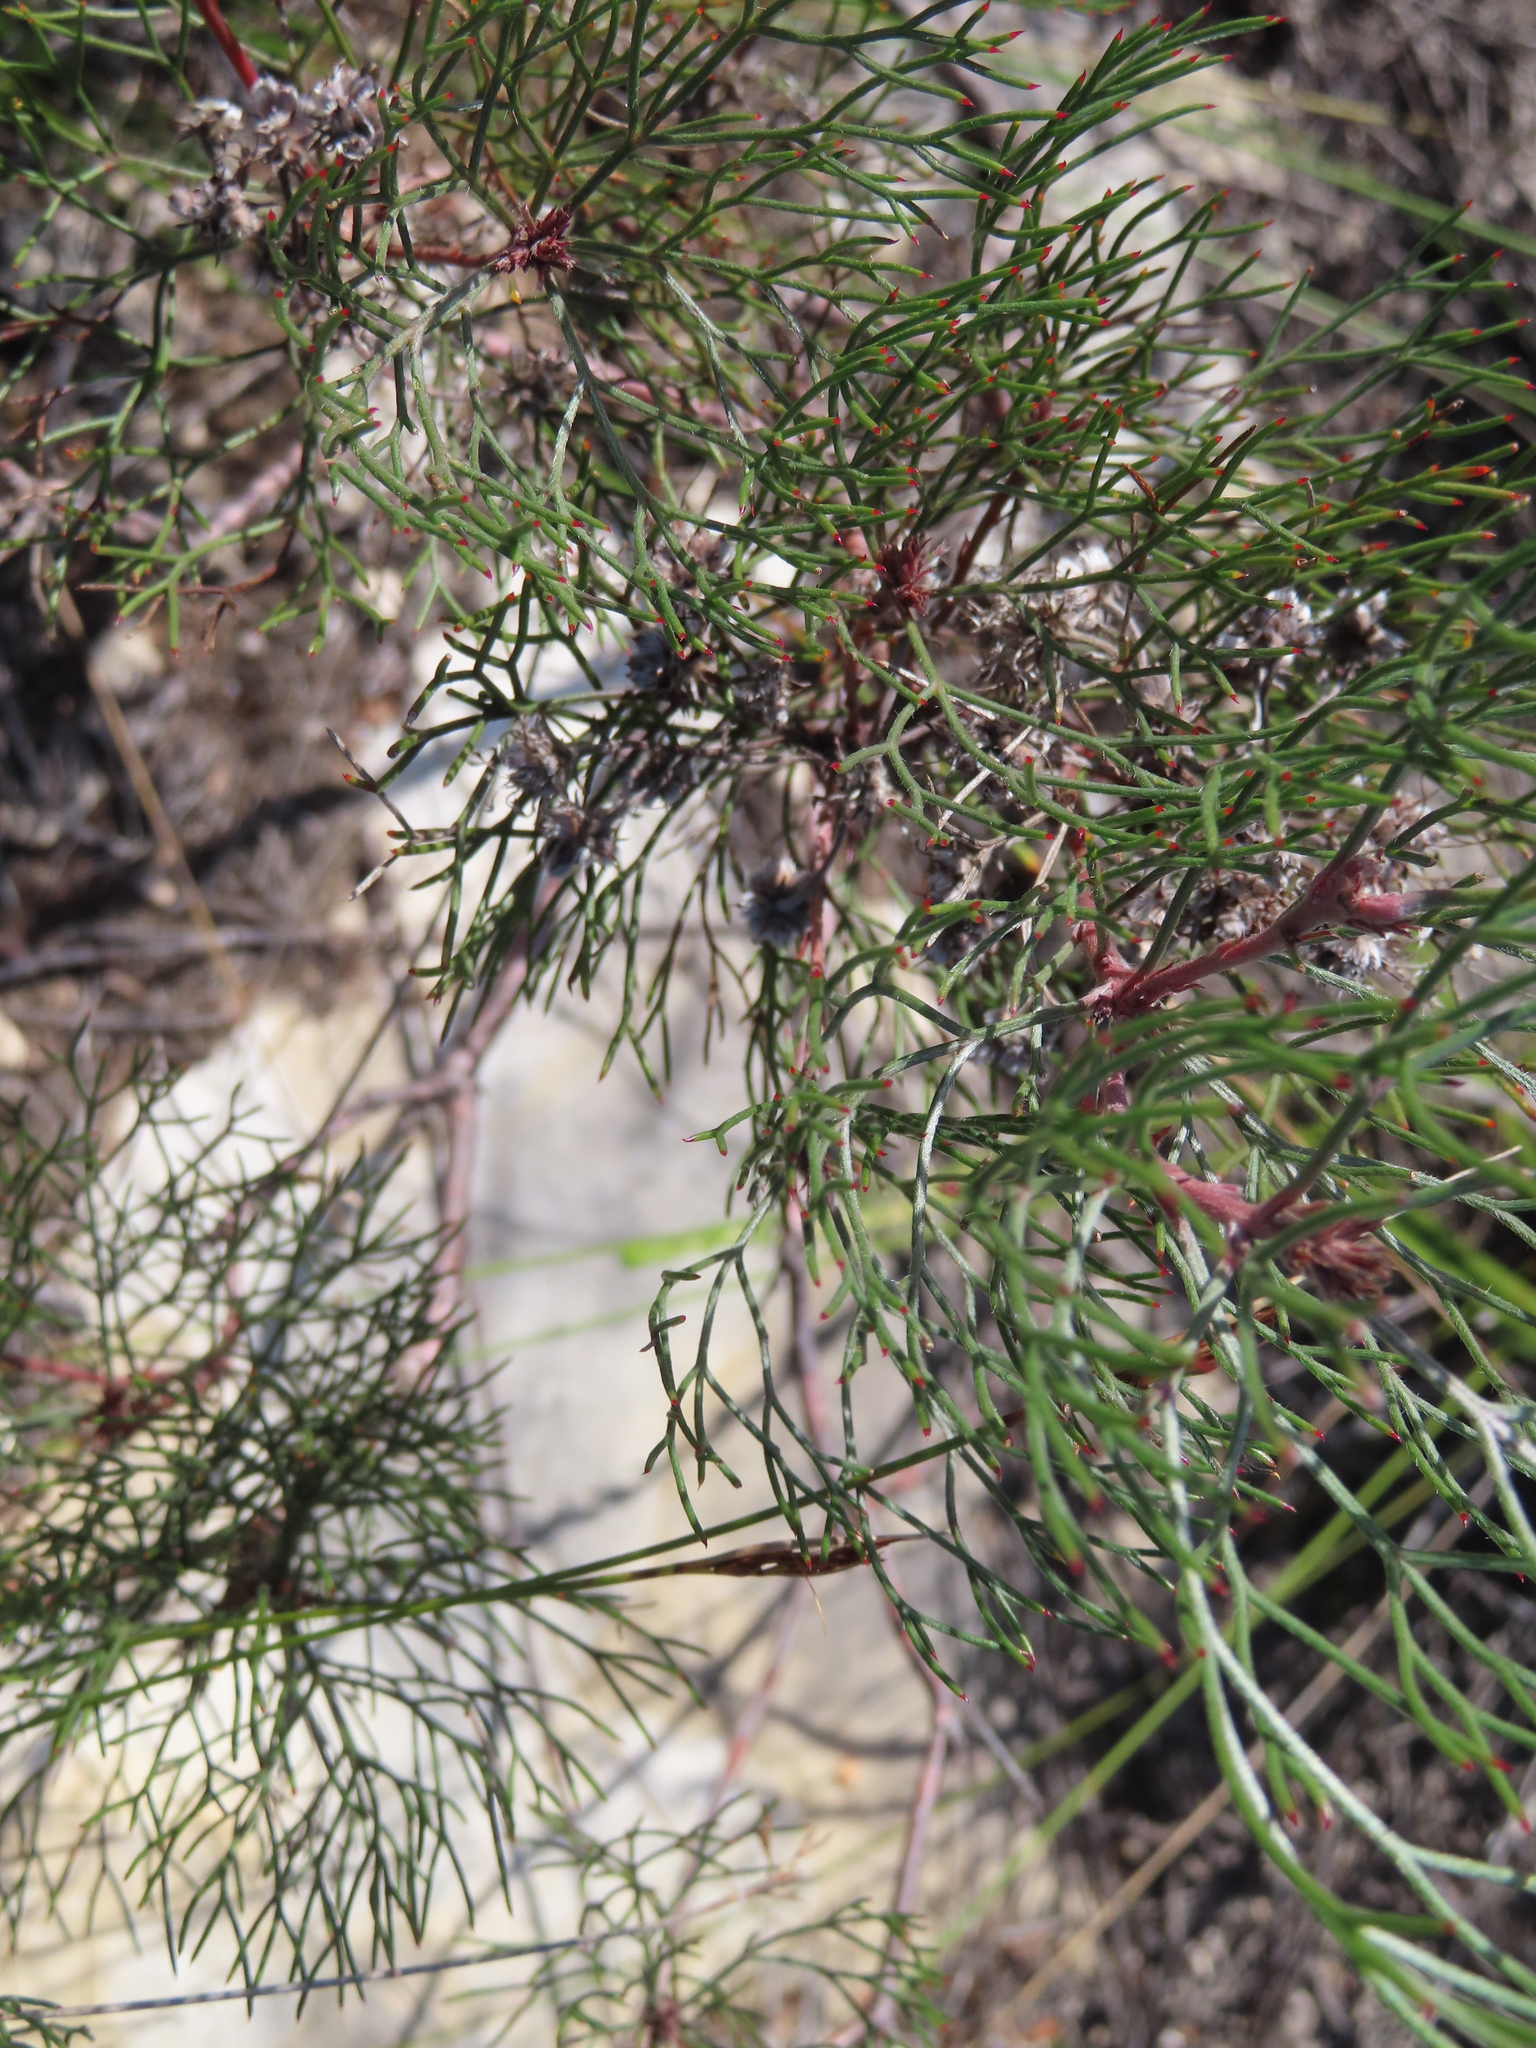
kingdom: Plantae
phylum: Tracheophyta
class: Magnoliopsida
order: Proteales
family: Proteaceae
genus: Serruria
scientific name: Serruria fasciflora
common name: Common pin spiderhead
